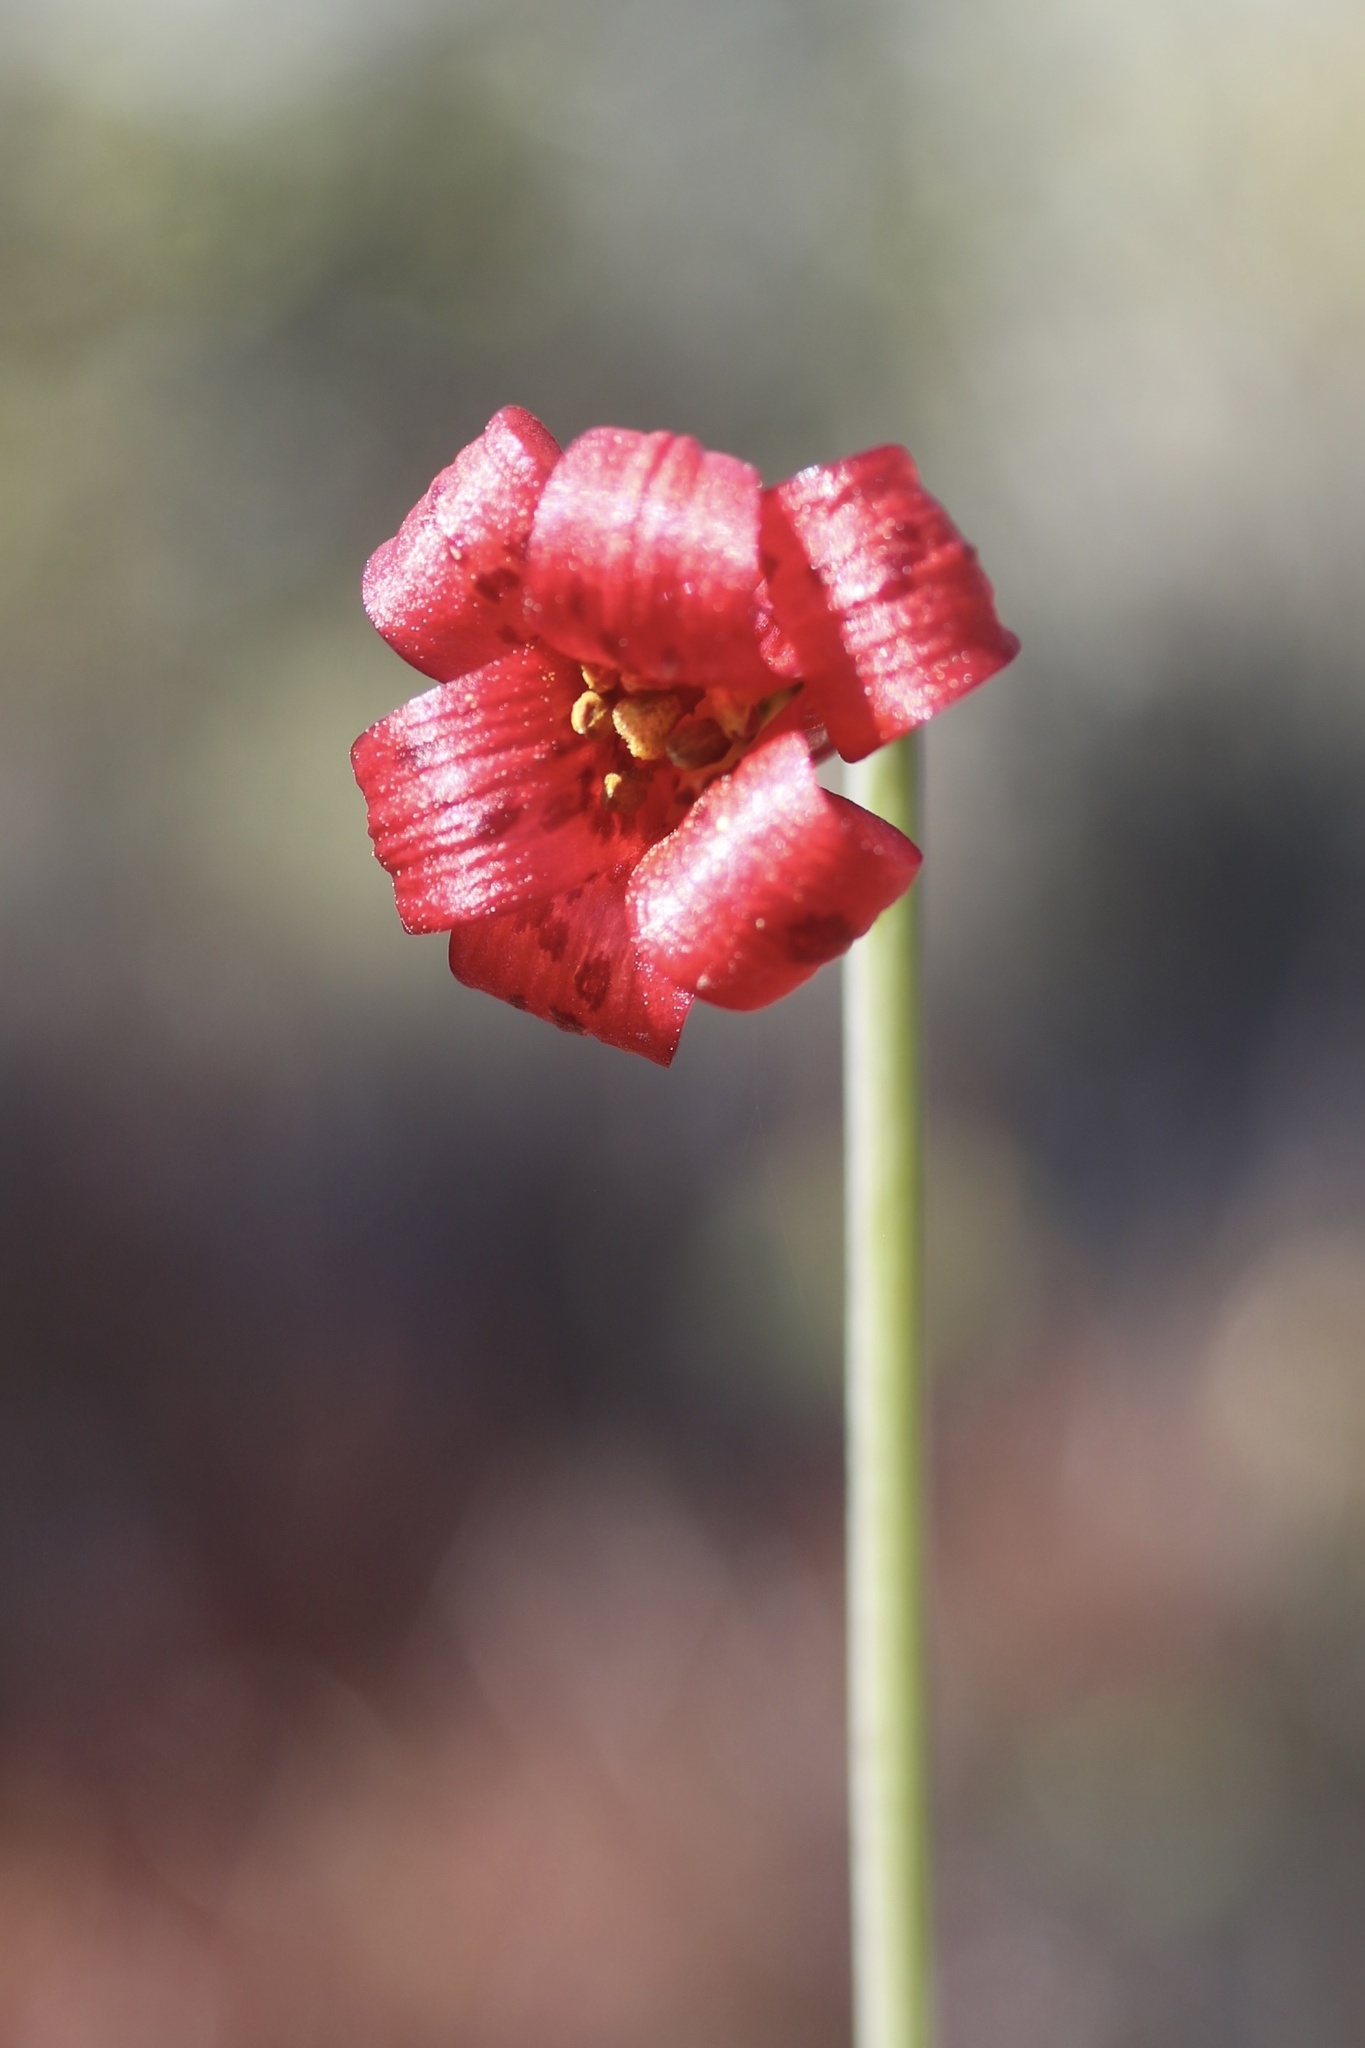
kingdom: Plantae
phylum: Tracheophyta
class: Liliopsida
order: Liliales
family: Liliaceae
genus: Lilium
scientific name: Lilium maritimum
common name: Coastal lily
